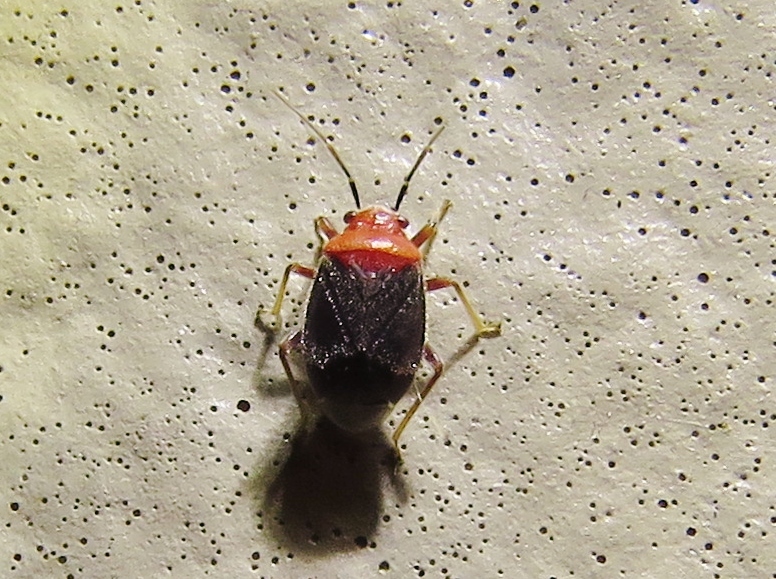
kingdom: Animalia
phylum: Arthropoda
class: Insecta
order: Hemiptera
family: Miridae
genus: Halticotoma
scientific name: Halticotoma valida
